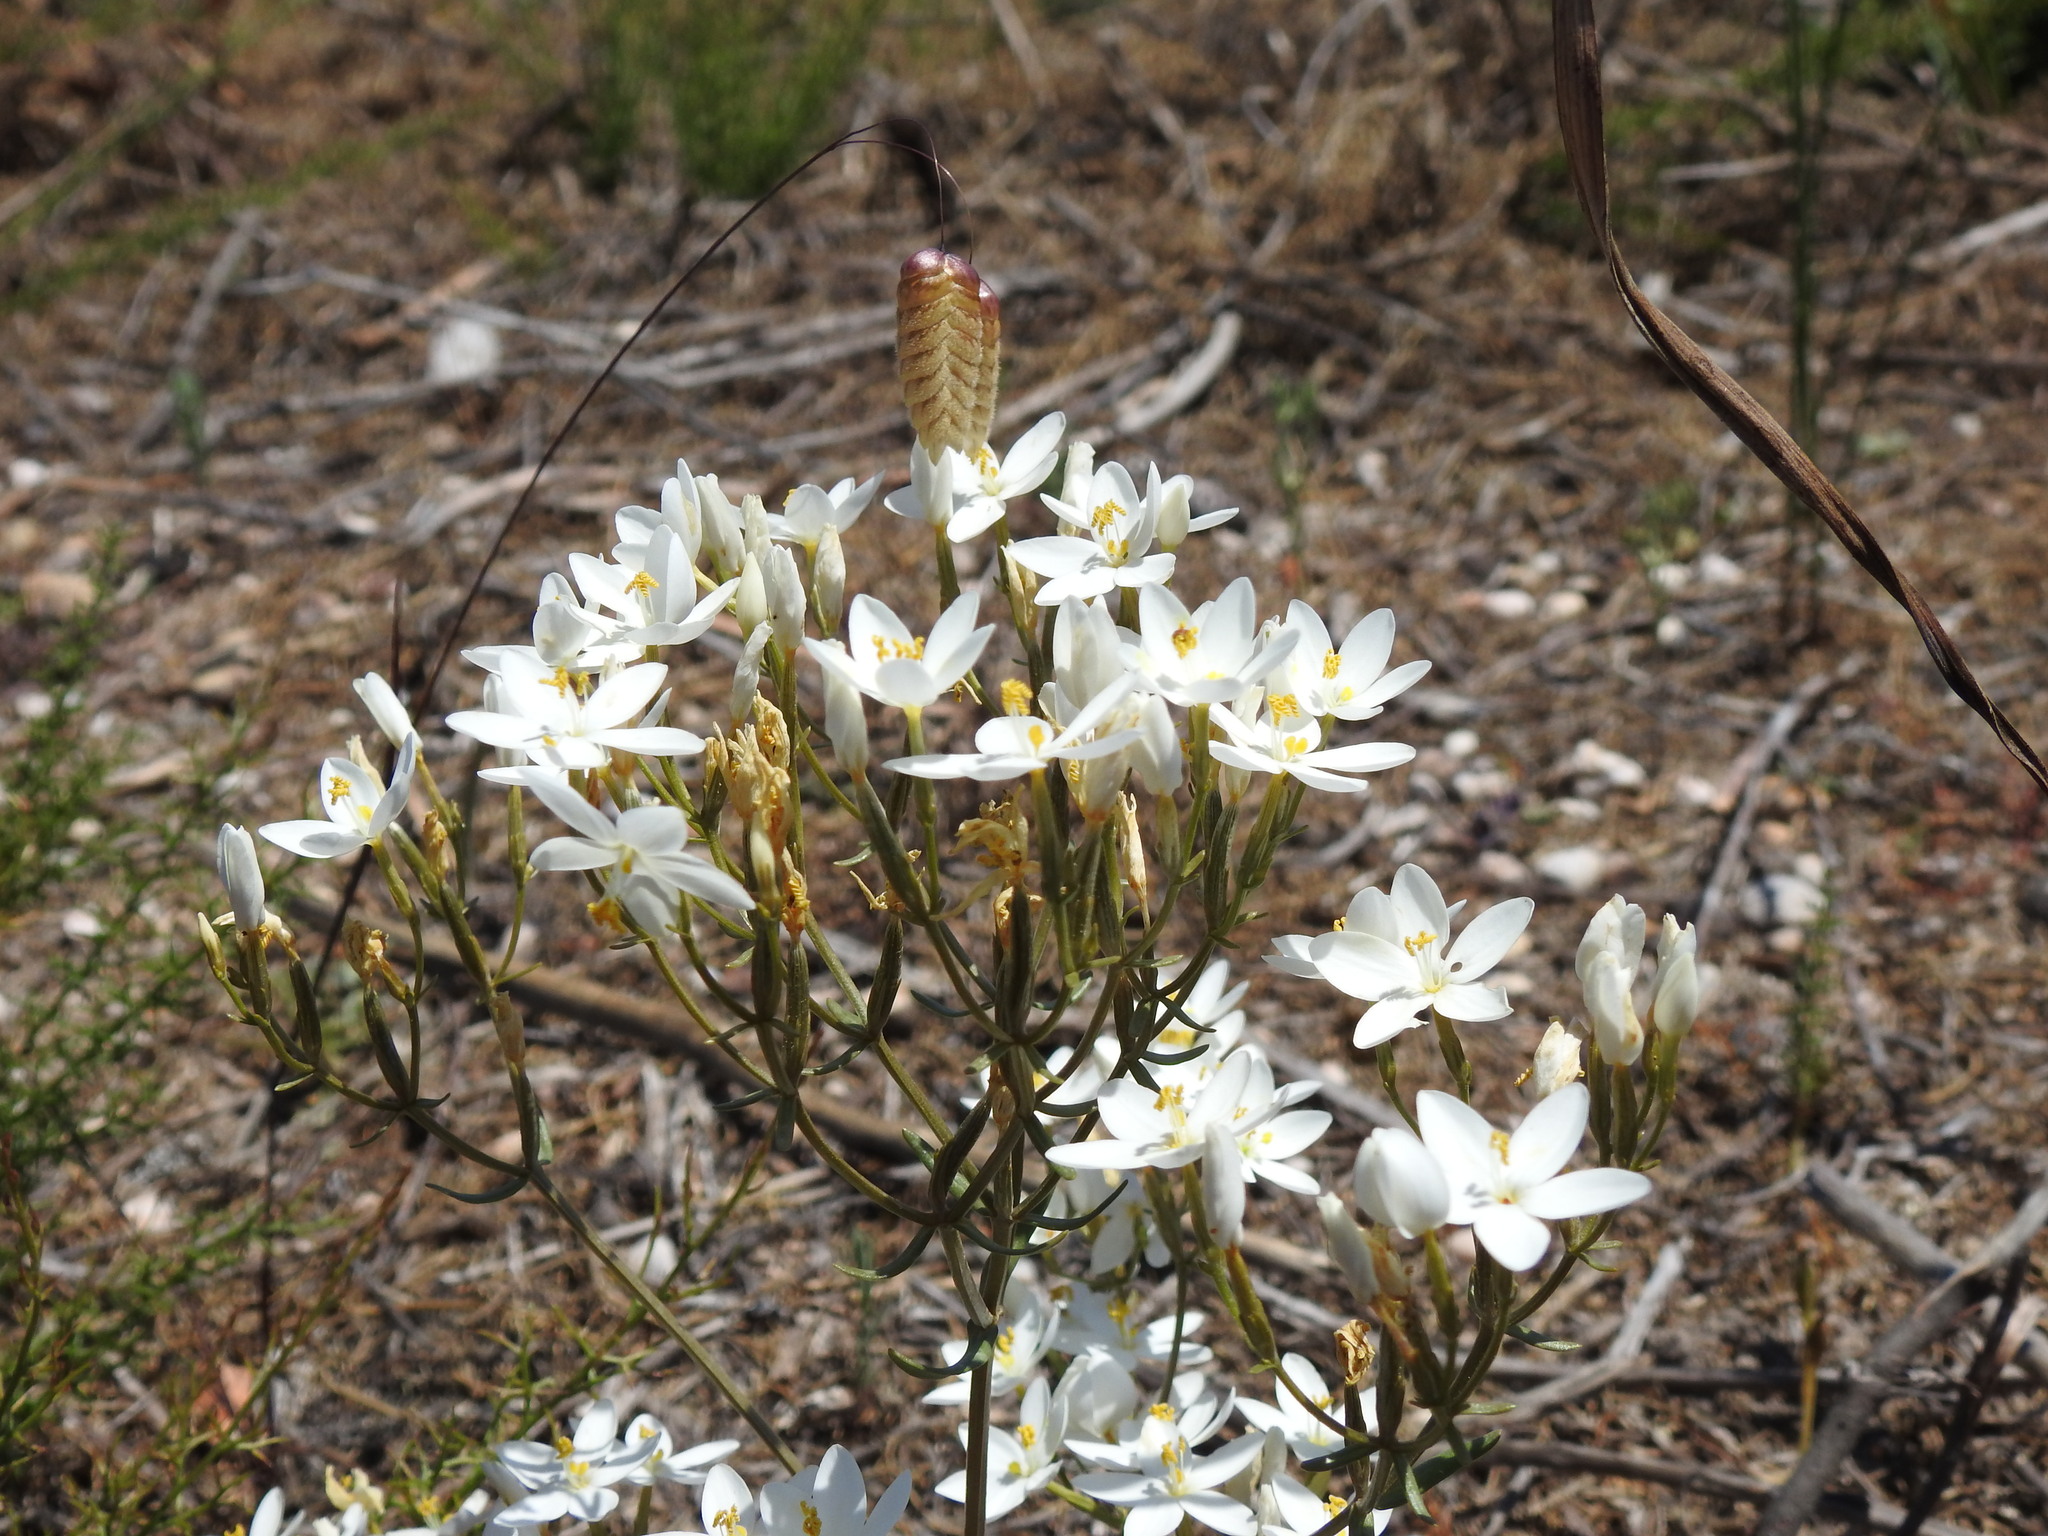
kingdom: Plantae
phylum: Tracheophyta
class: Magnoliopsida
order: Gentianales
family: Gentianaceae
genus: Centaurium
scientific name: Centaurium grandiflorum
